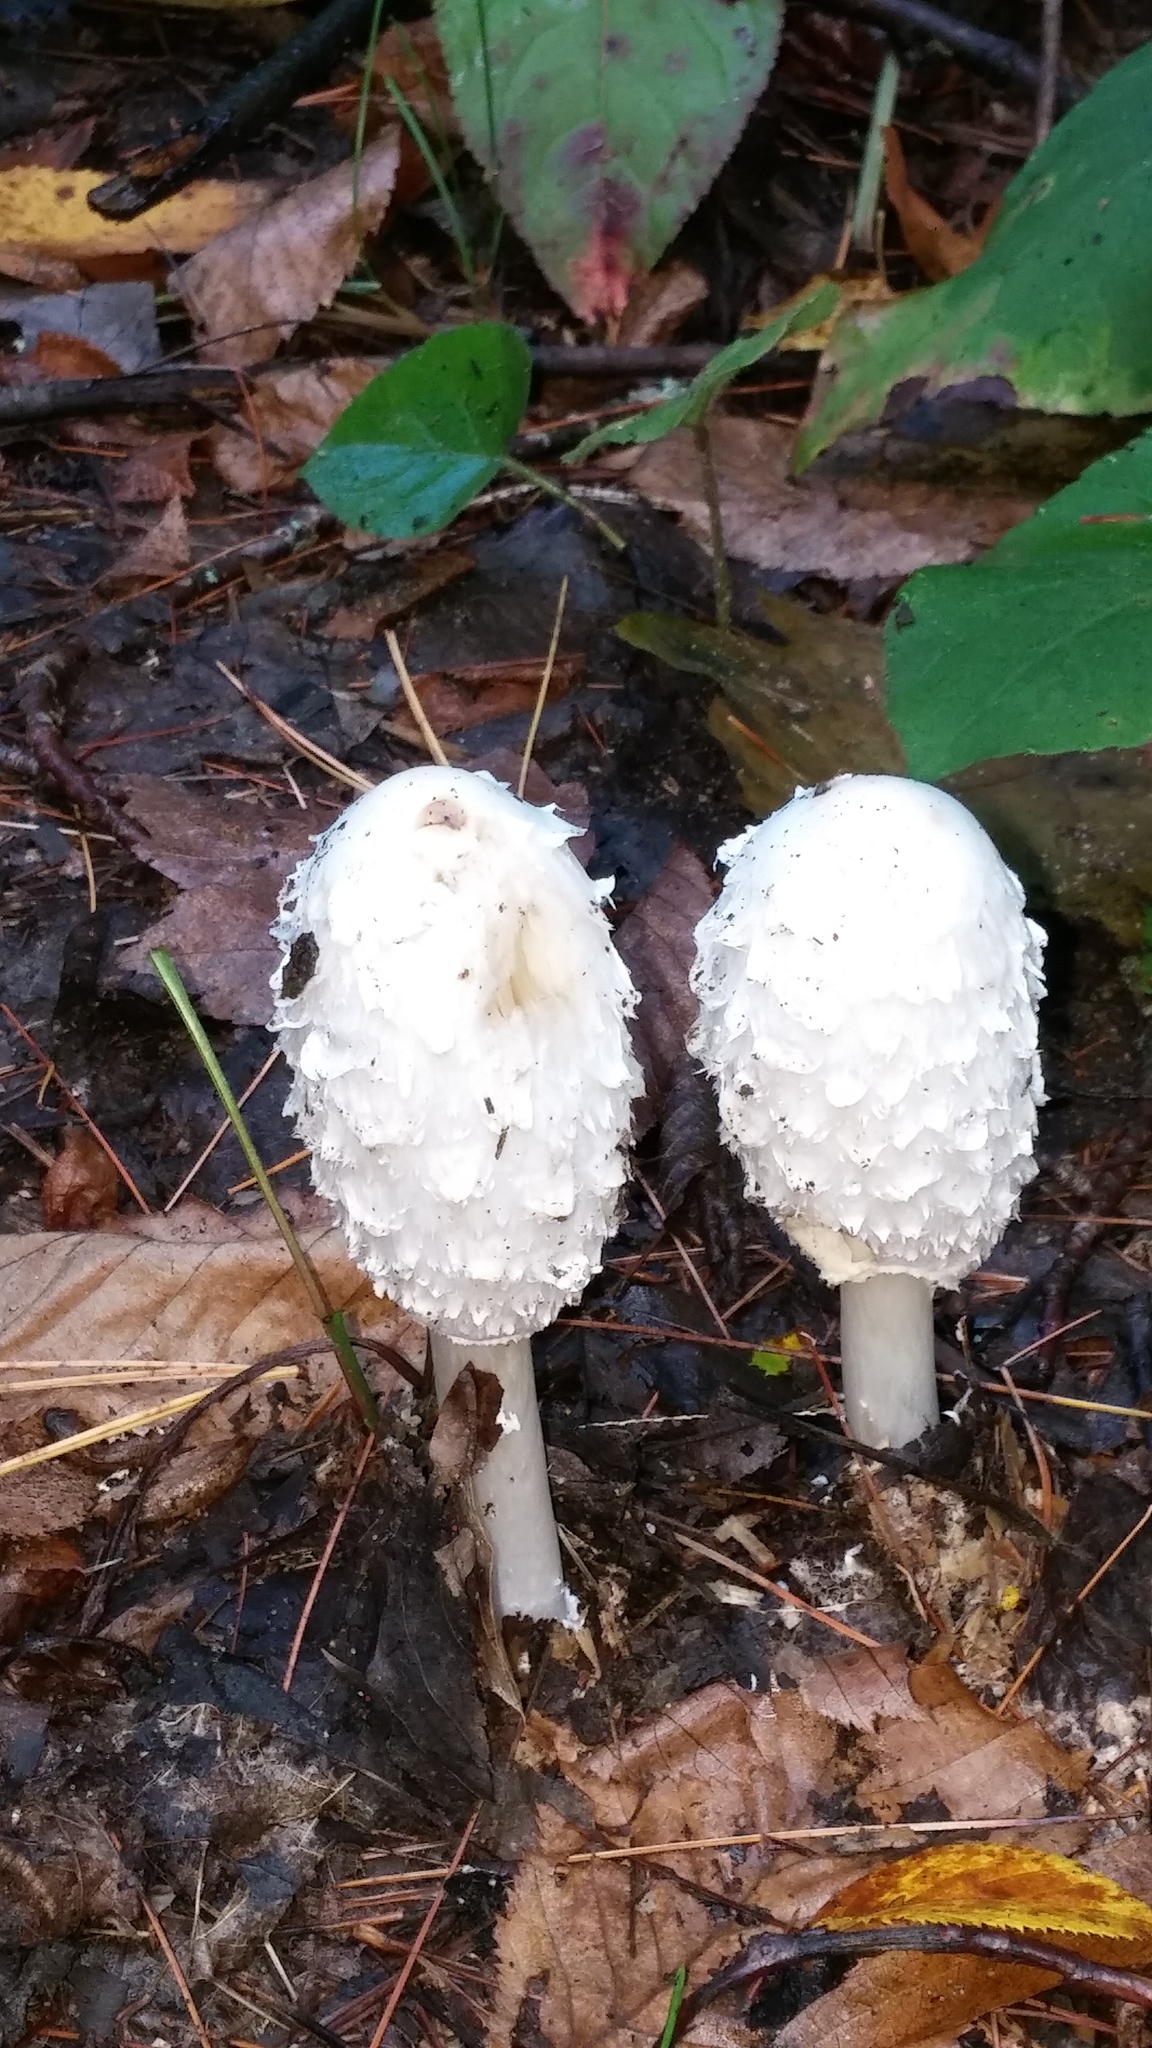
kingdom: Fungi
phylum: Basidiomycota
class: Agaricomycetes
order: Agaricales
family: Agaricaceae
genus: Coprinus
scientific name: Coprinus comatus
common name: Lawyer's wig
